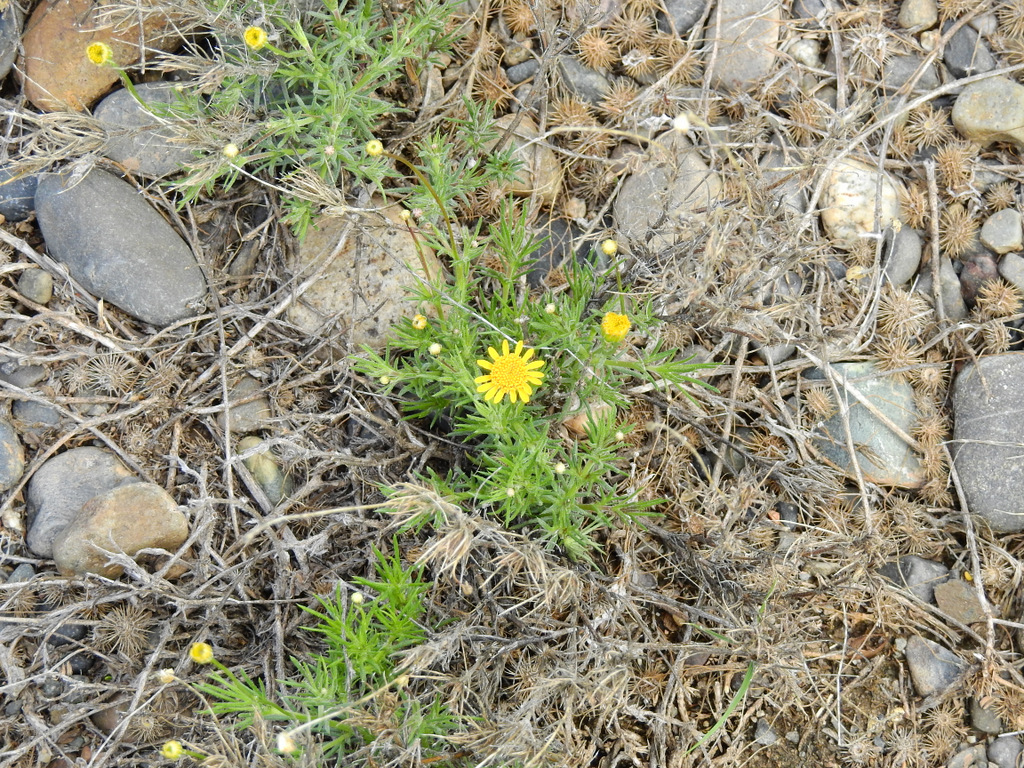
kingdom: Plantae
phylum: Tracheophyta
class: Magnoliopsida
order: Asterales
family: Asteraceae
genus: Thymophylla
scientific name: Thymophylla pentachaeta
